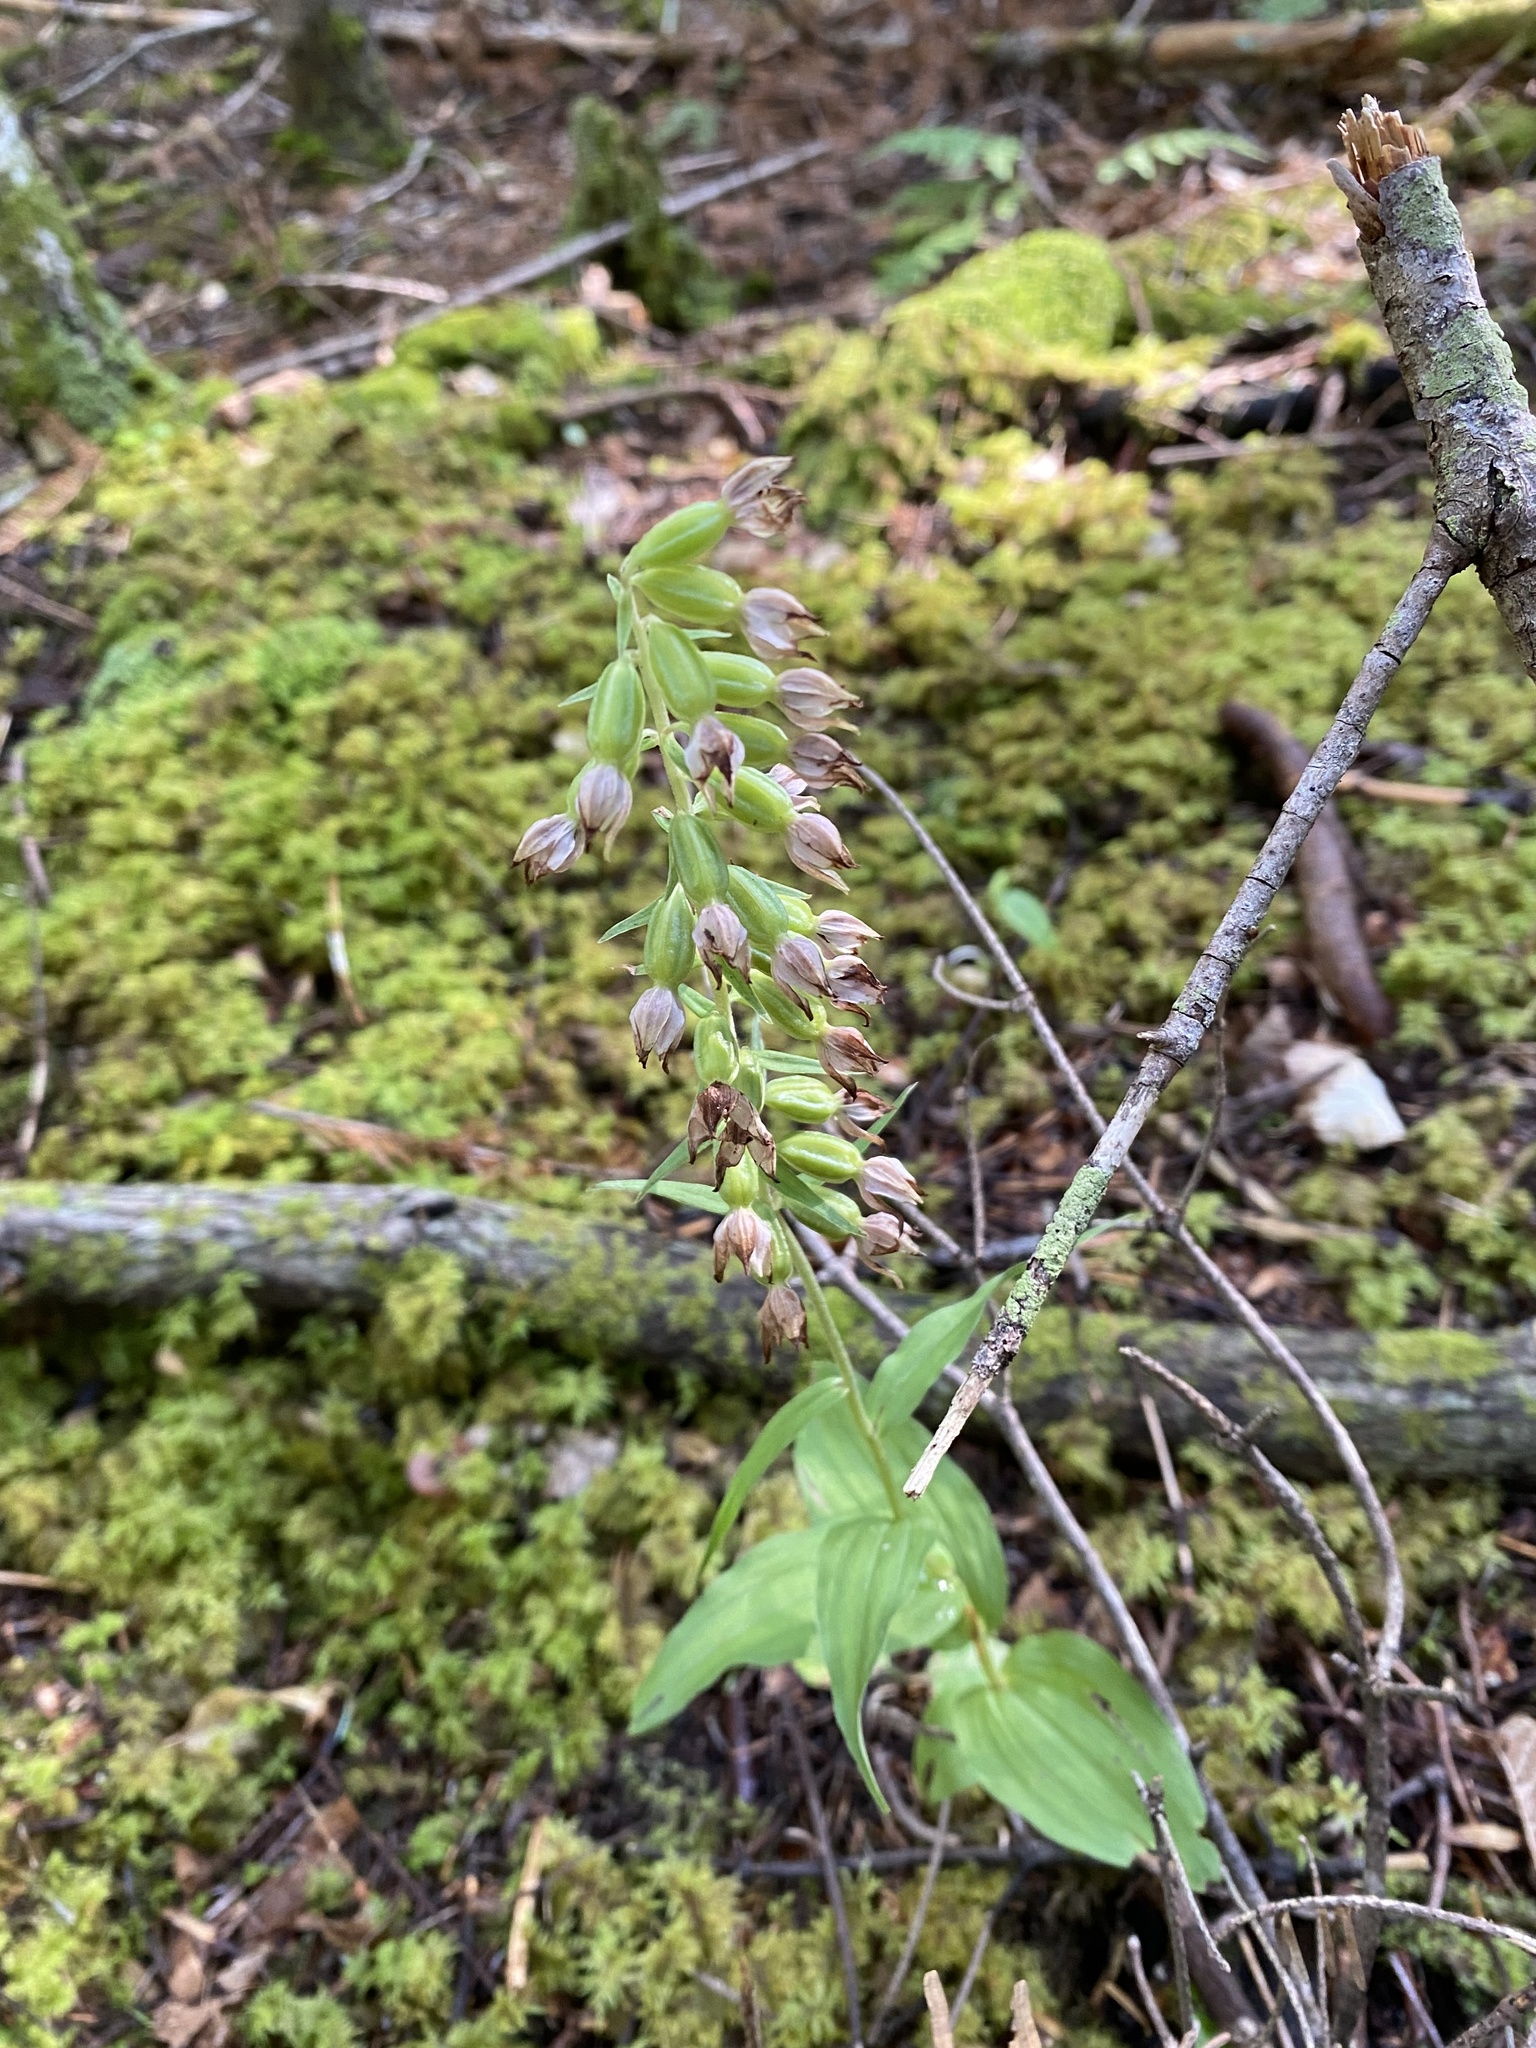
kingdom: Plantae
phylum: Tracheophyta
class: Liliopsida
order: Asparagales
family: Orchidaceae
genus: Epipactis
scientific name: Epipactis helleborine
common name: Broad-leaved helleborine
